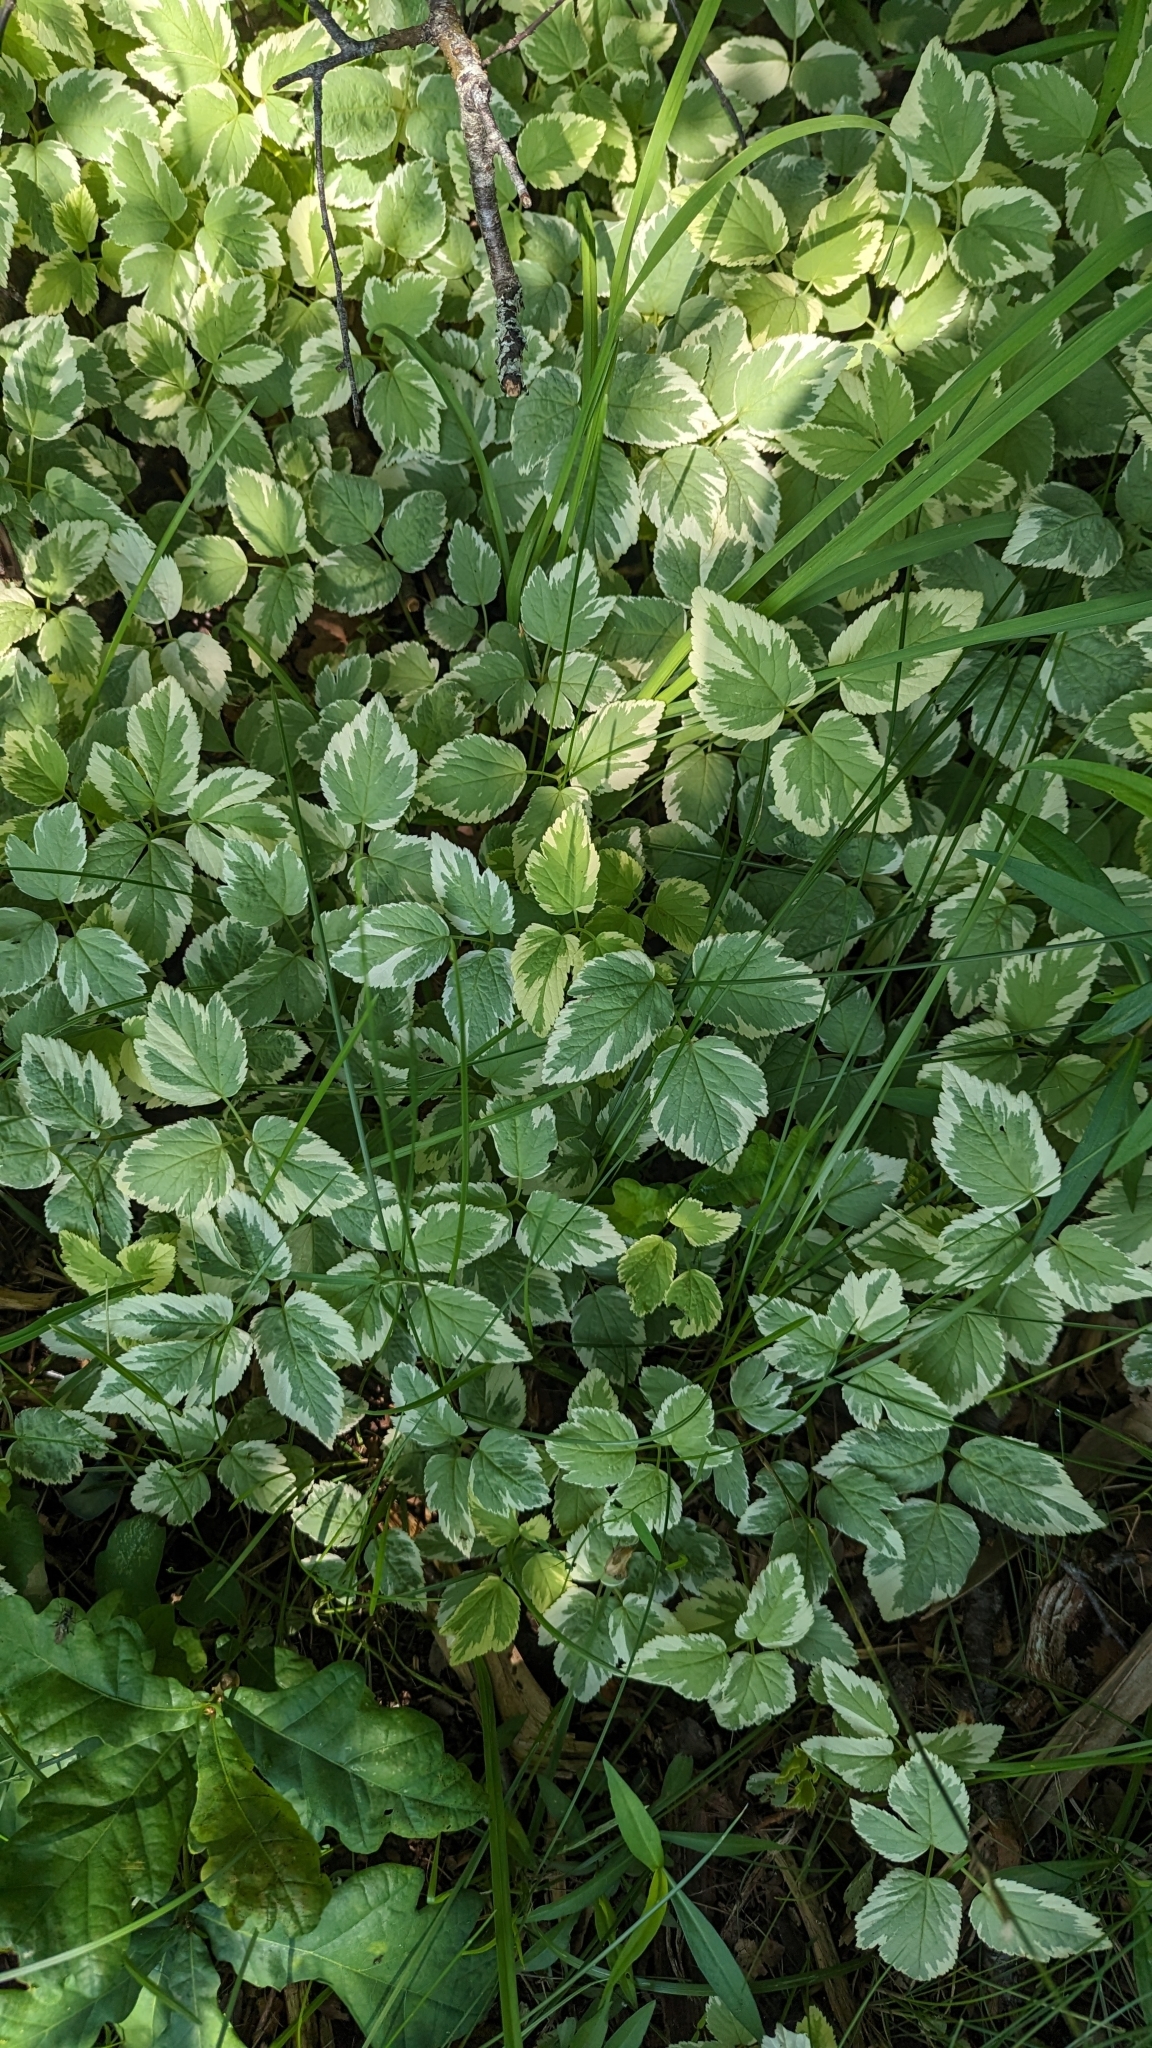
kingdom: Plantae
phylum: Tracheophyta
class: Magnoliopsida
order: Apiales
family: Apiaceae
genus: Aegopodium
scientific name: Aegopodium podagraria
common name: Ground-elder
